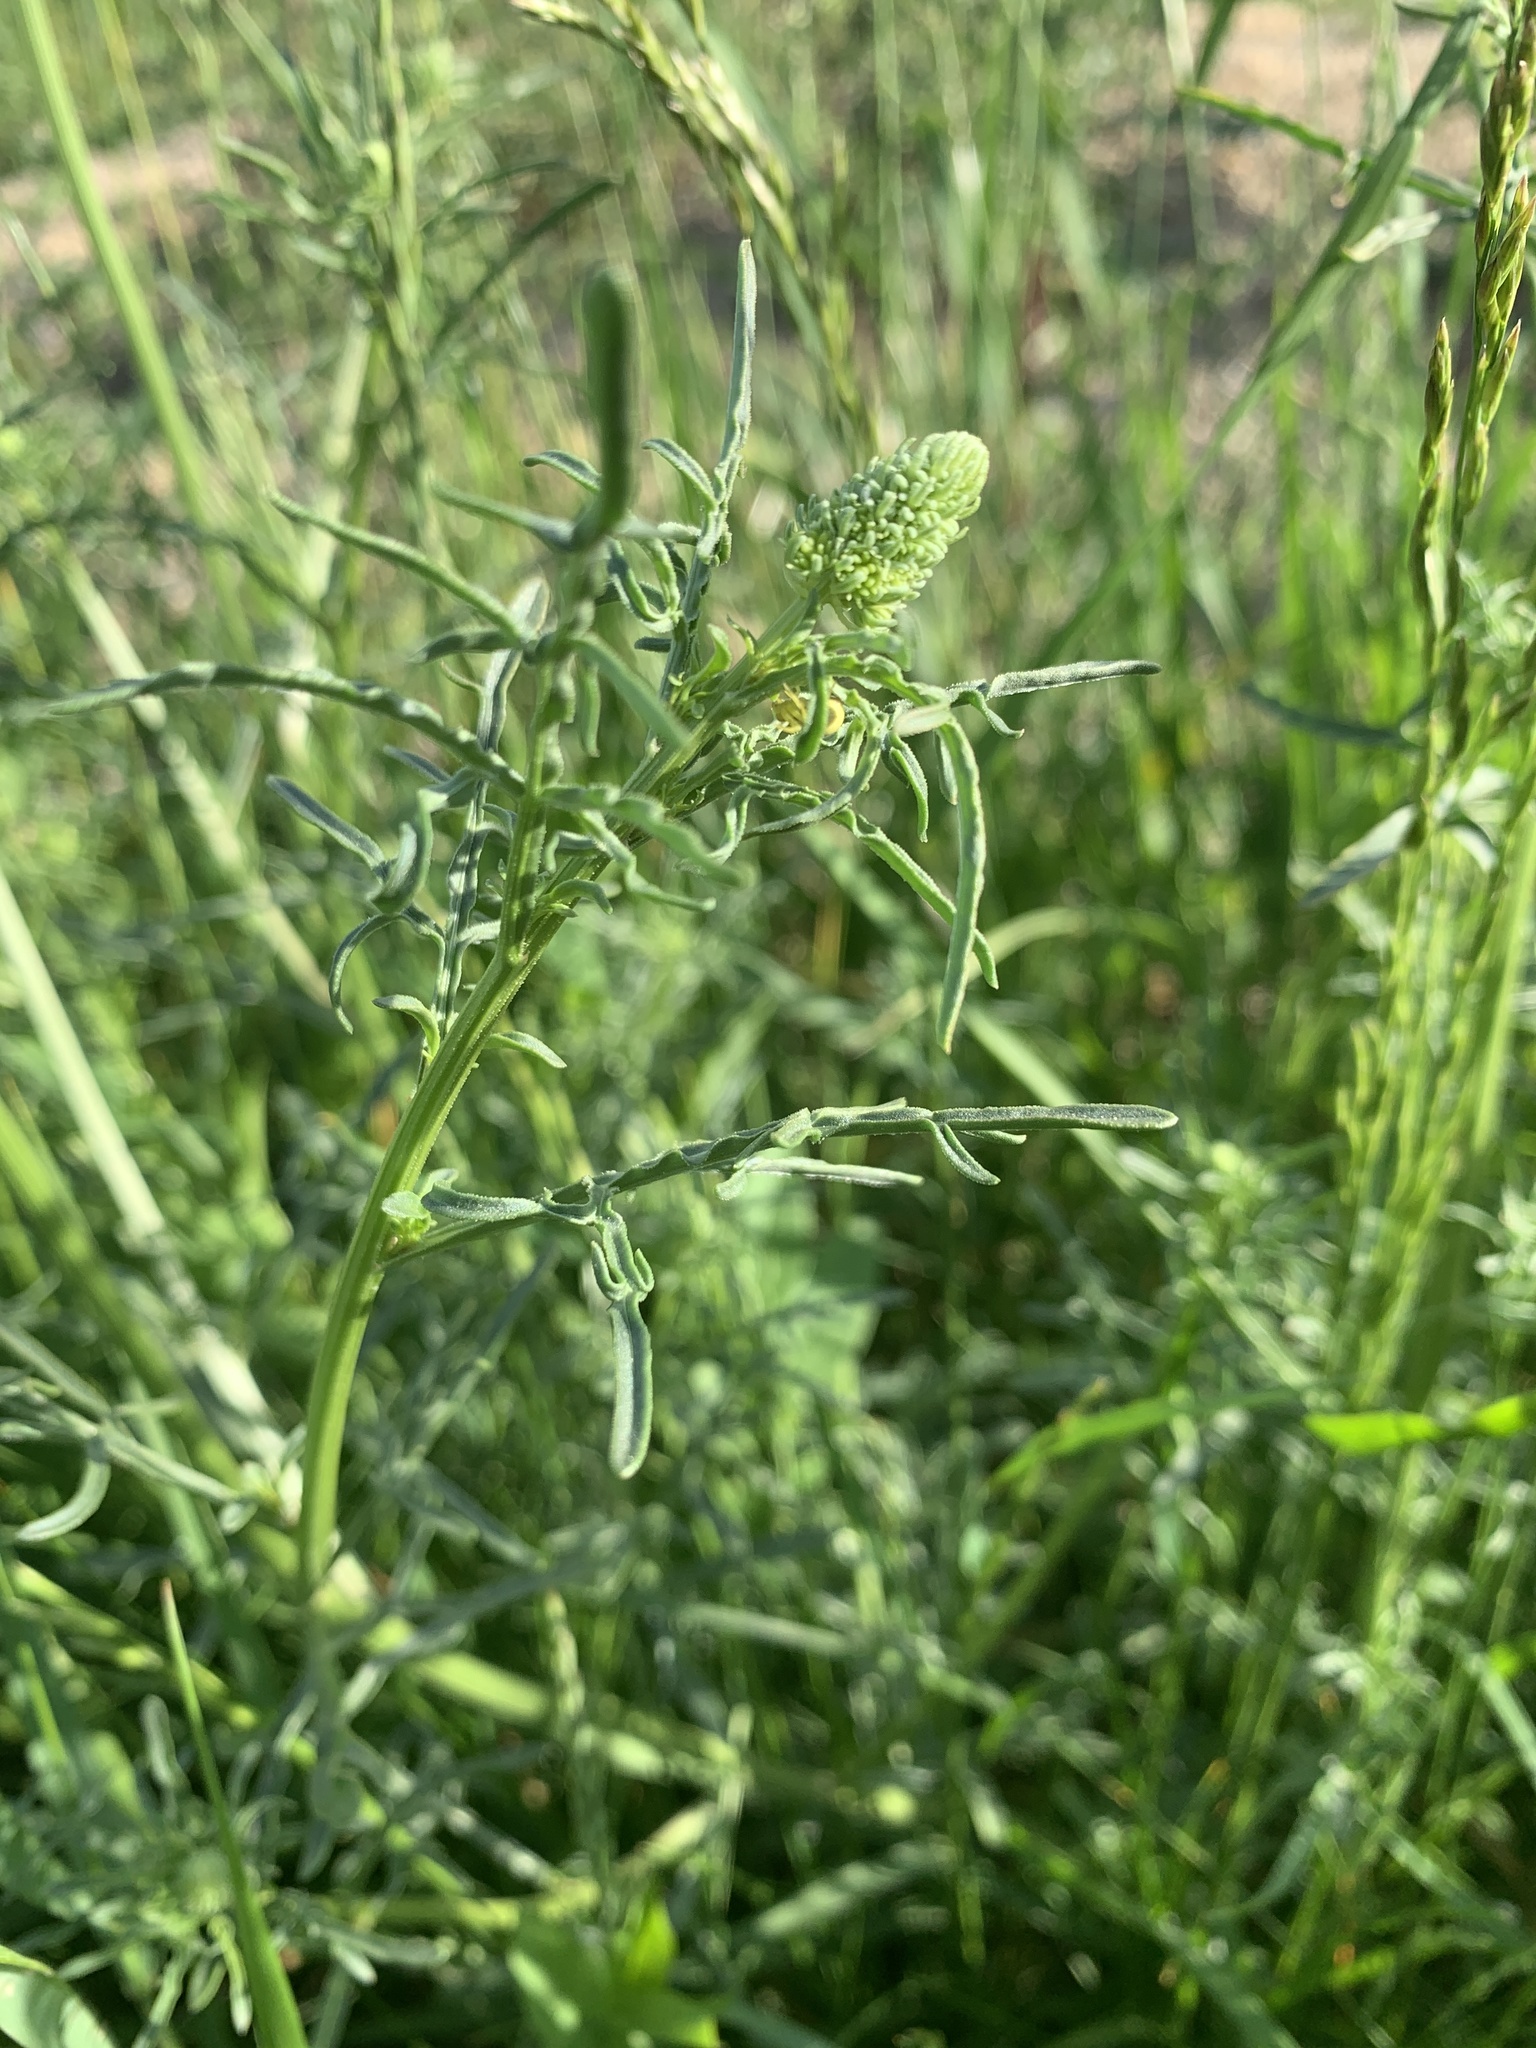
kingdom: Plantae
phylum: Tracheophyta
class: Magnoliopsida
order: Brassicales
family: Resedaceae
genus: Reseda
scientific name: Reseda lutea
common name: Wild mignonette
